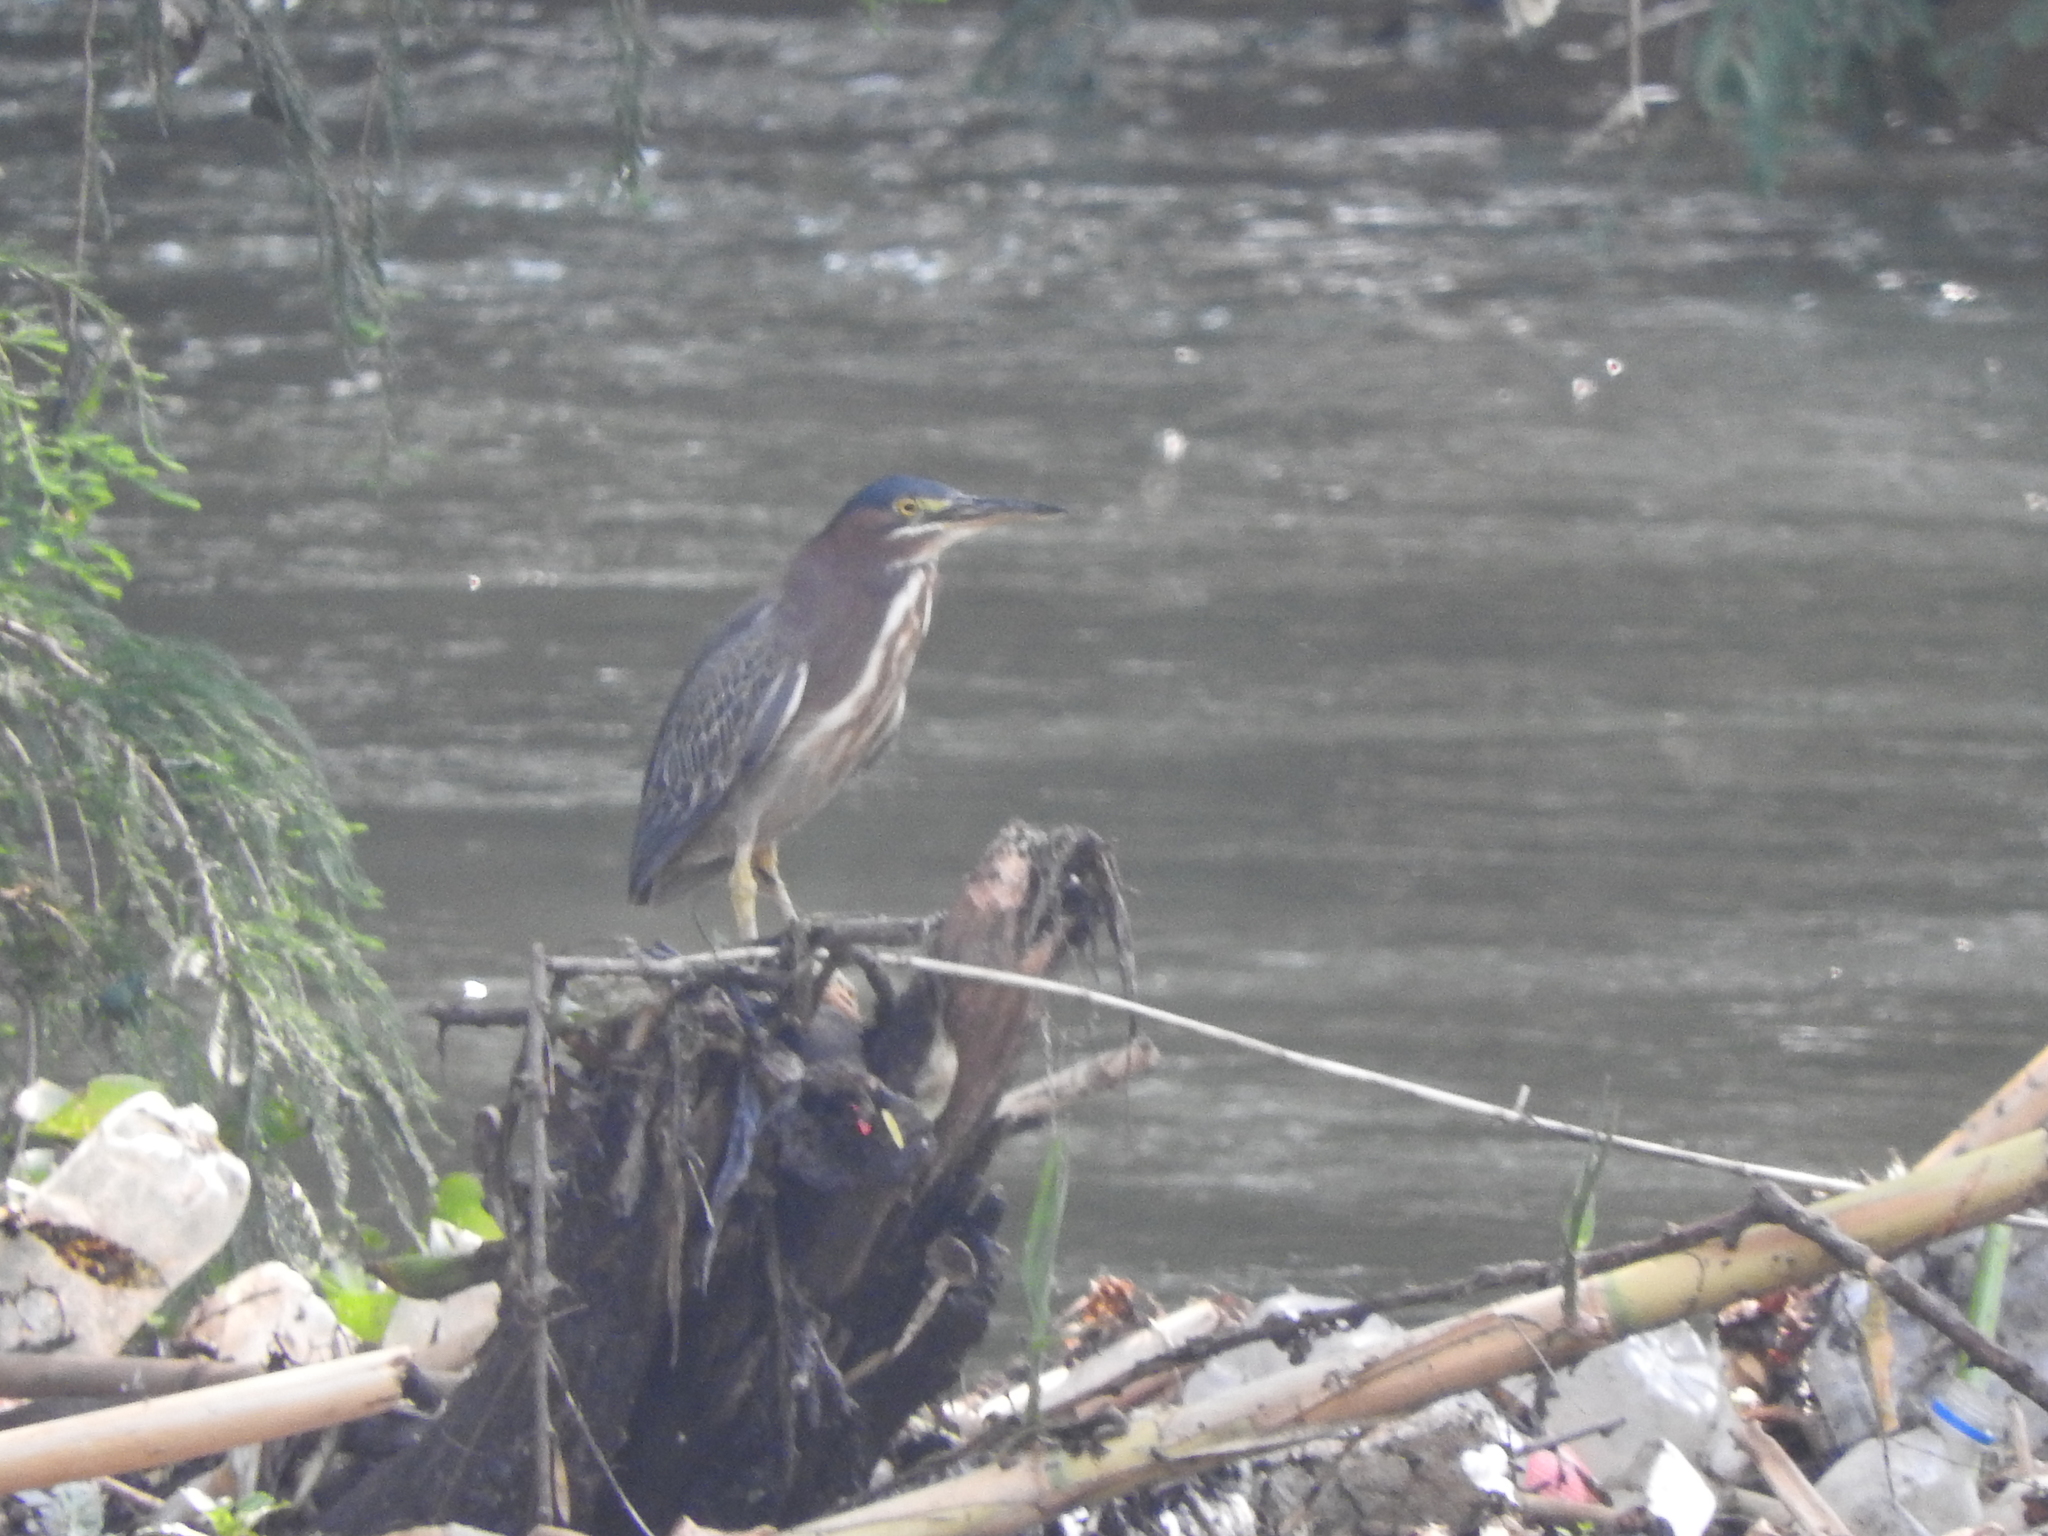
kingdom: Animalia
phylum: Chordata
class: Aves
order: Pelecaniformes
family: Ardeidae
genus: Butorides
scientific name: Butorides virescens
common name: Green heron
